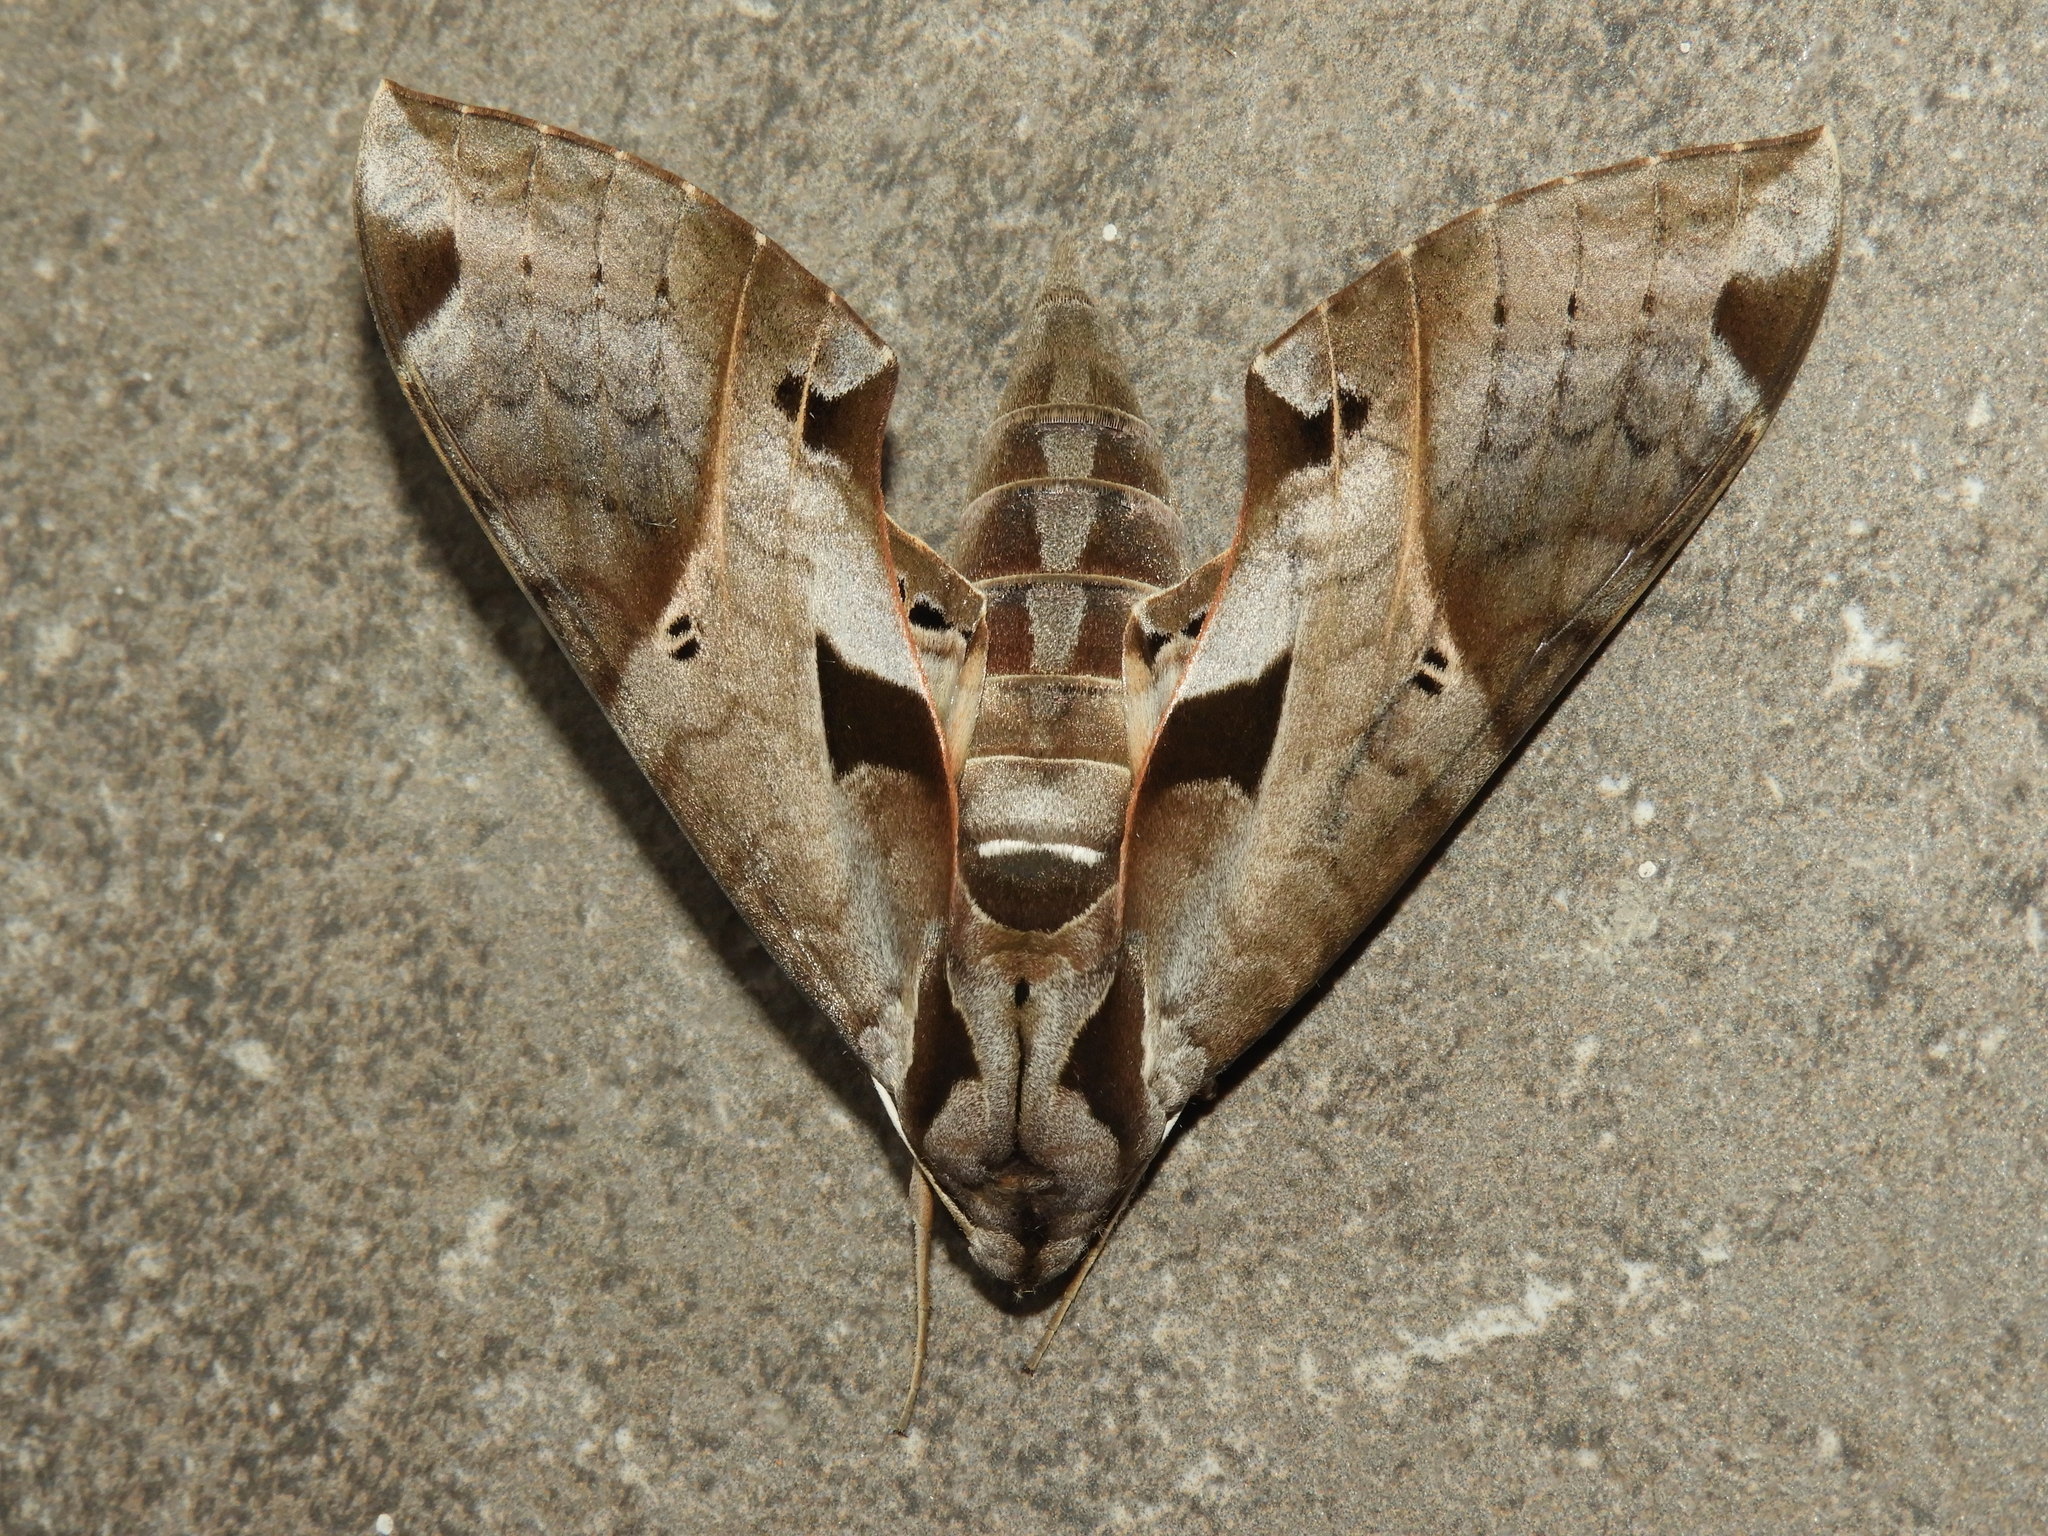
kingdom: Animalia
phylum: Arthropoda
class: Insecta
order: Lepidoptera
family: Sphingidae
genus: Eumorpha
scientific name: Eumorpha satellitia
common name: Satellite sphinx
